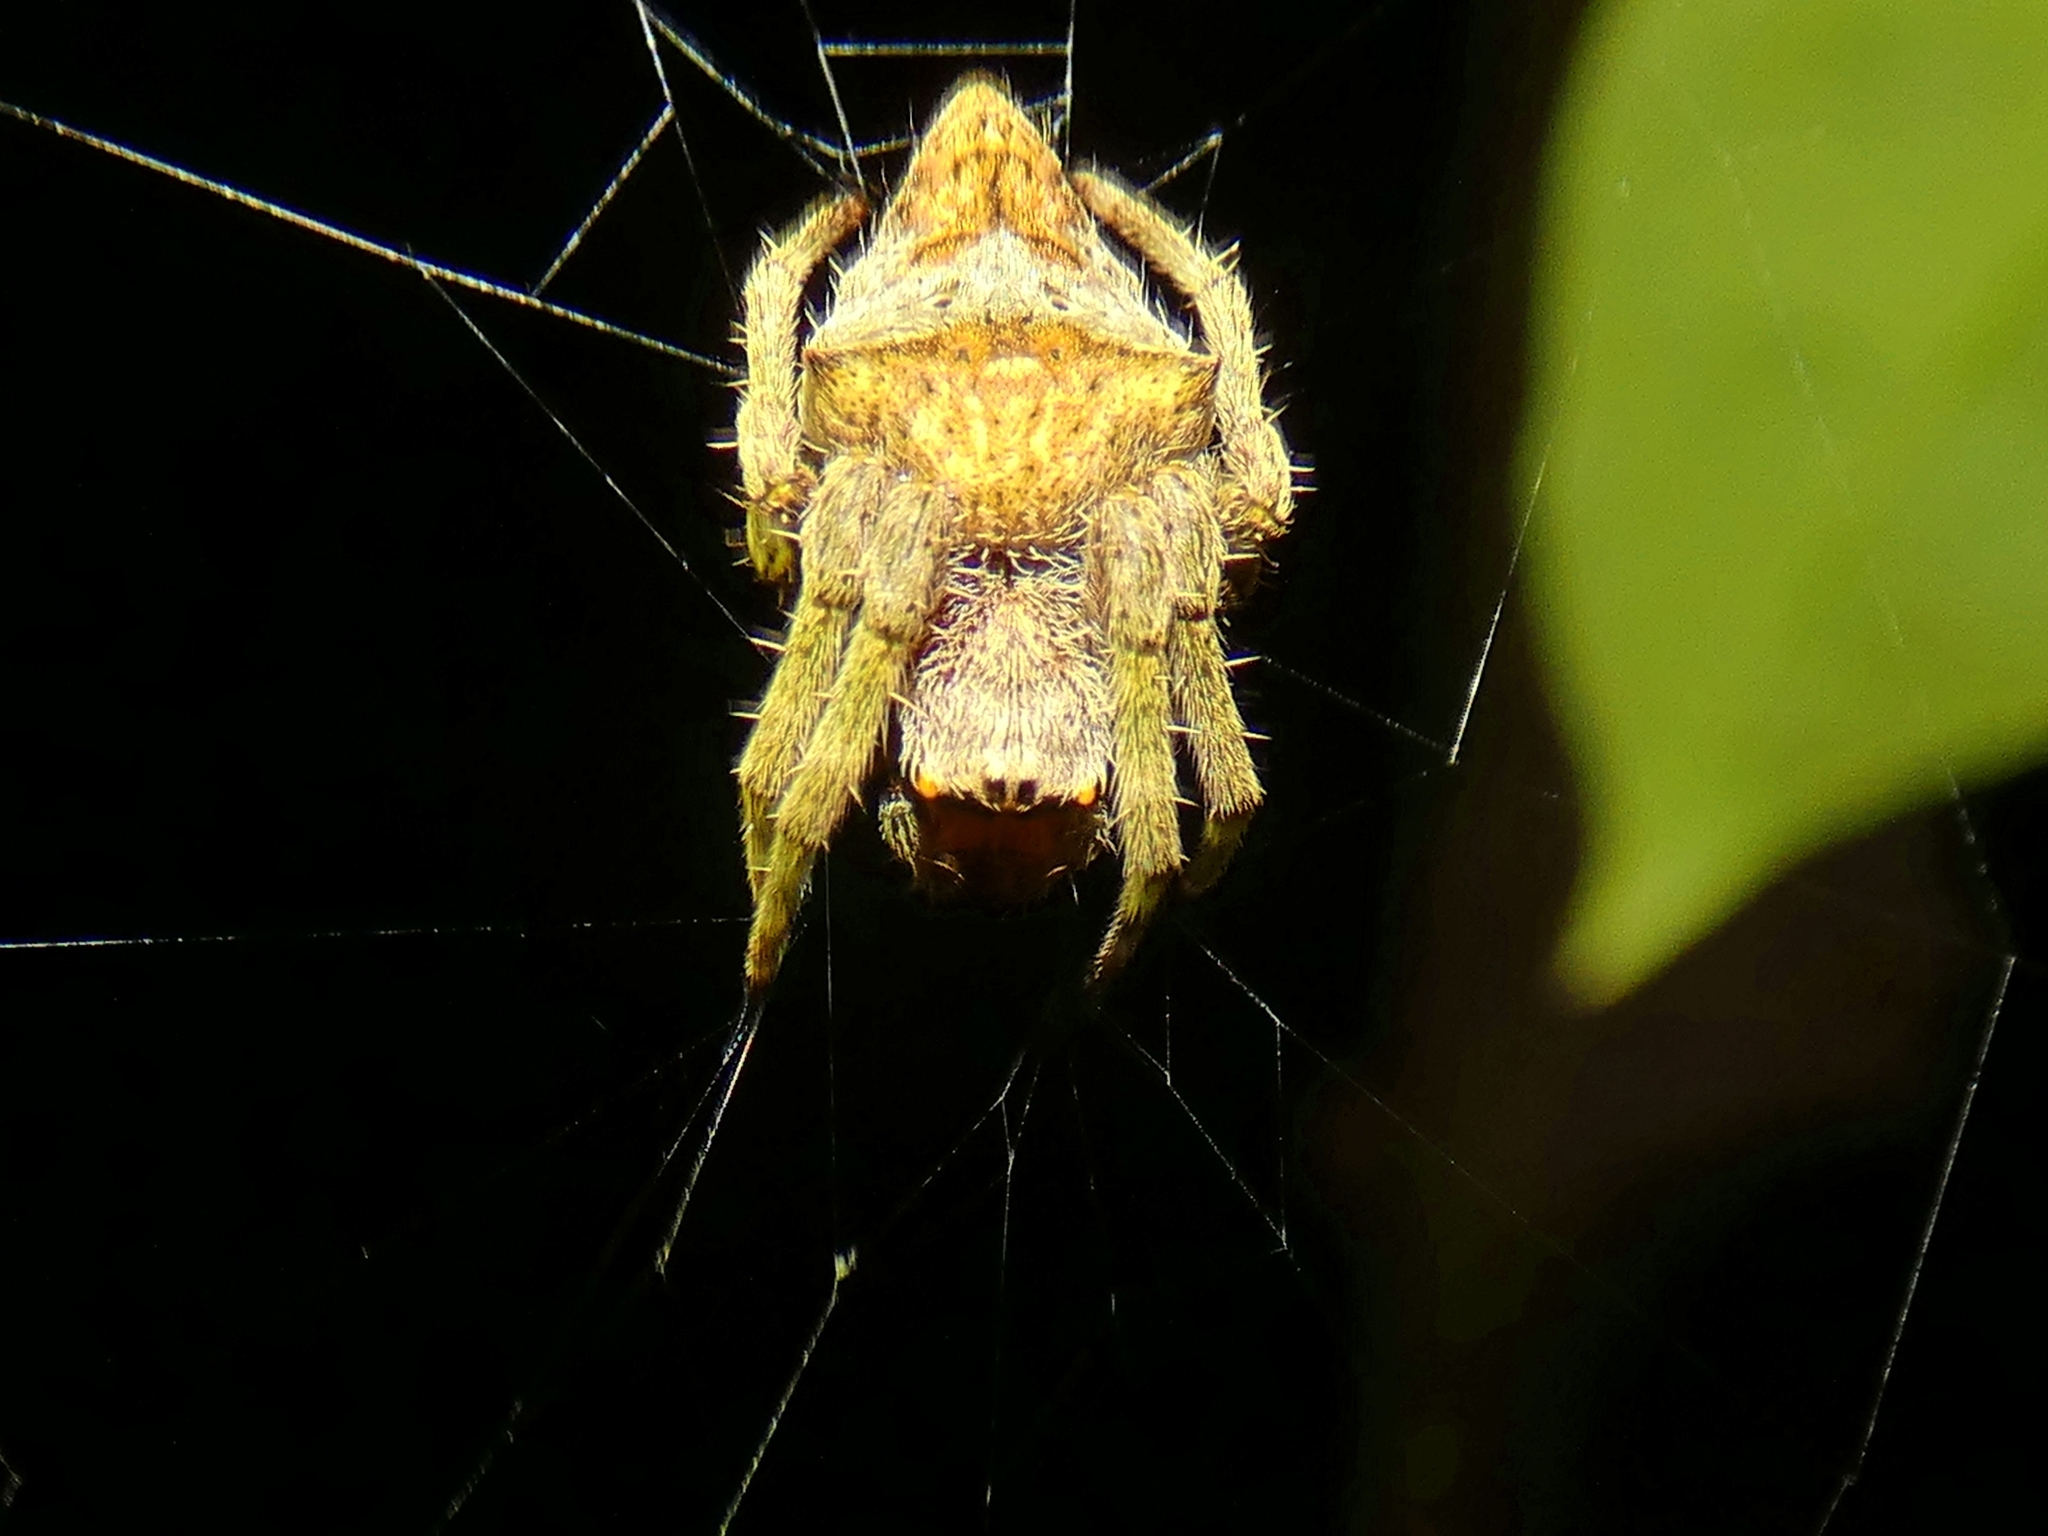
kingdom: Animalia
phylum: Arthropoda
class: Arachnida
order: Araneae
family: Araneidae
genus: Parawixia
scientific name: Parawixia dehaani
